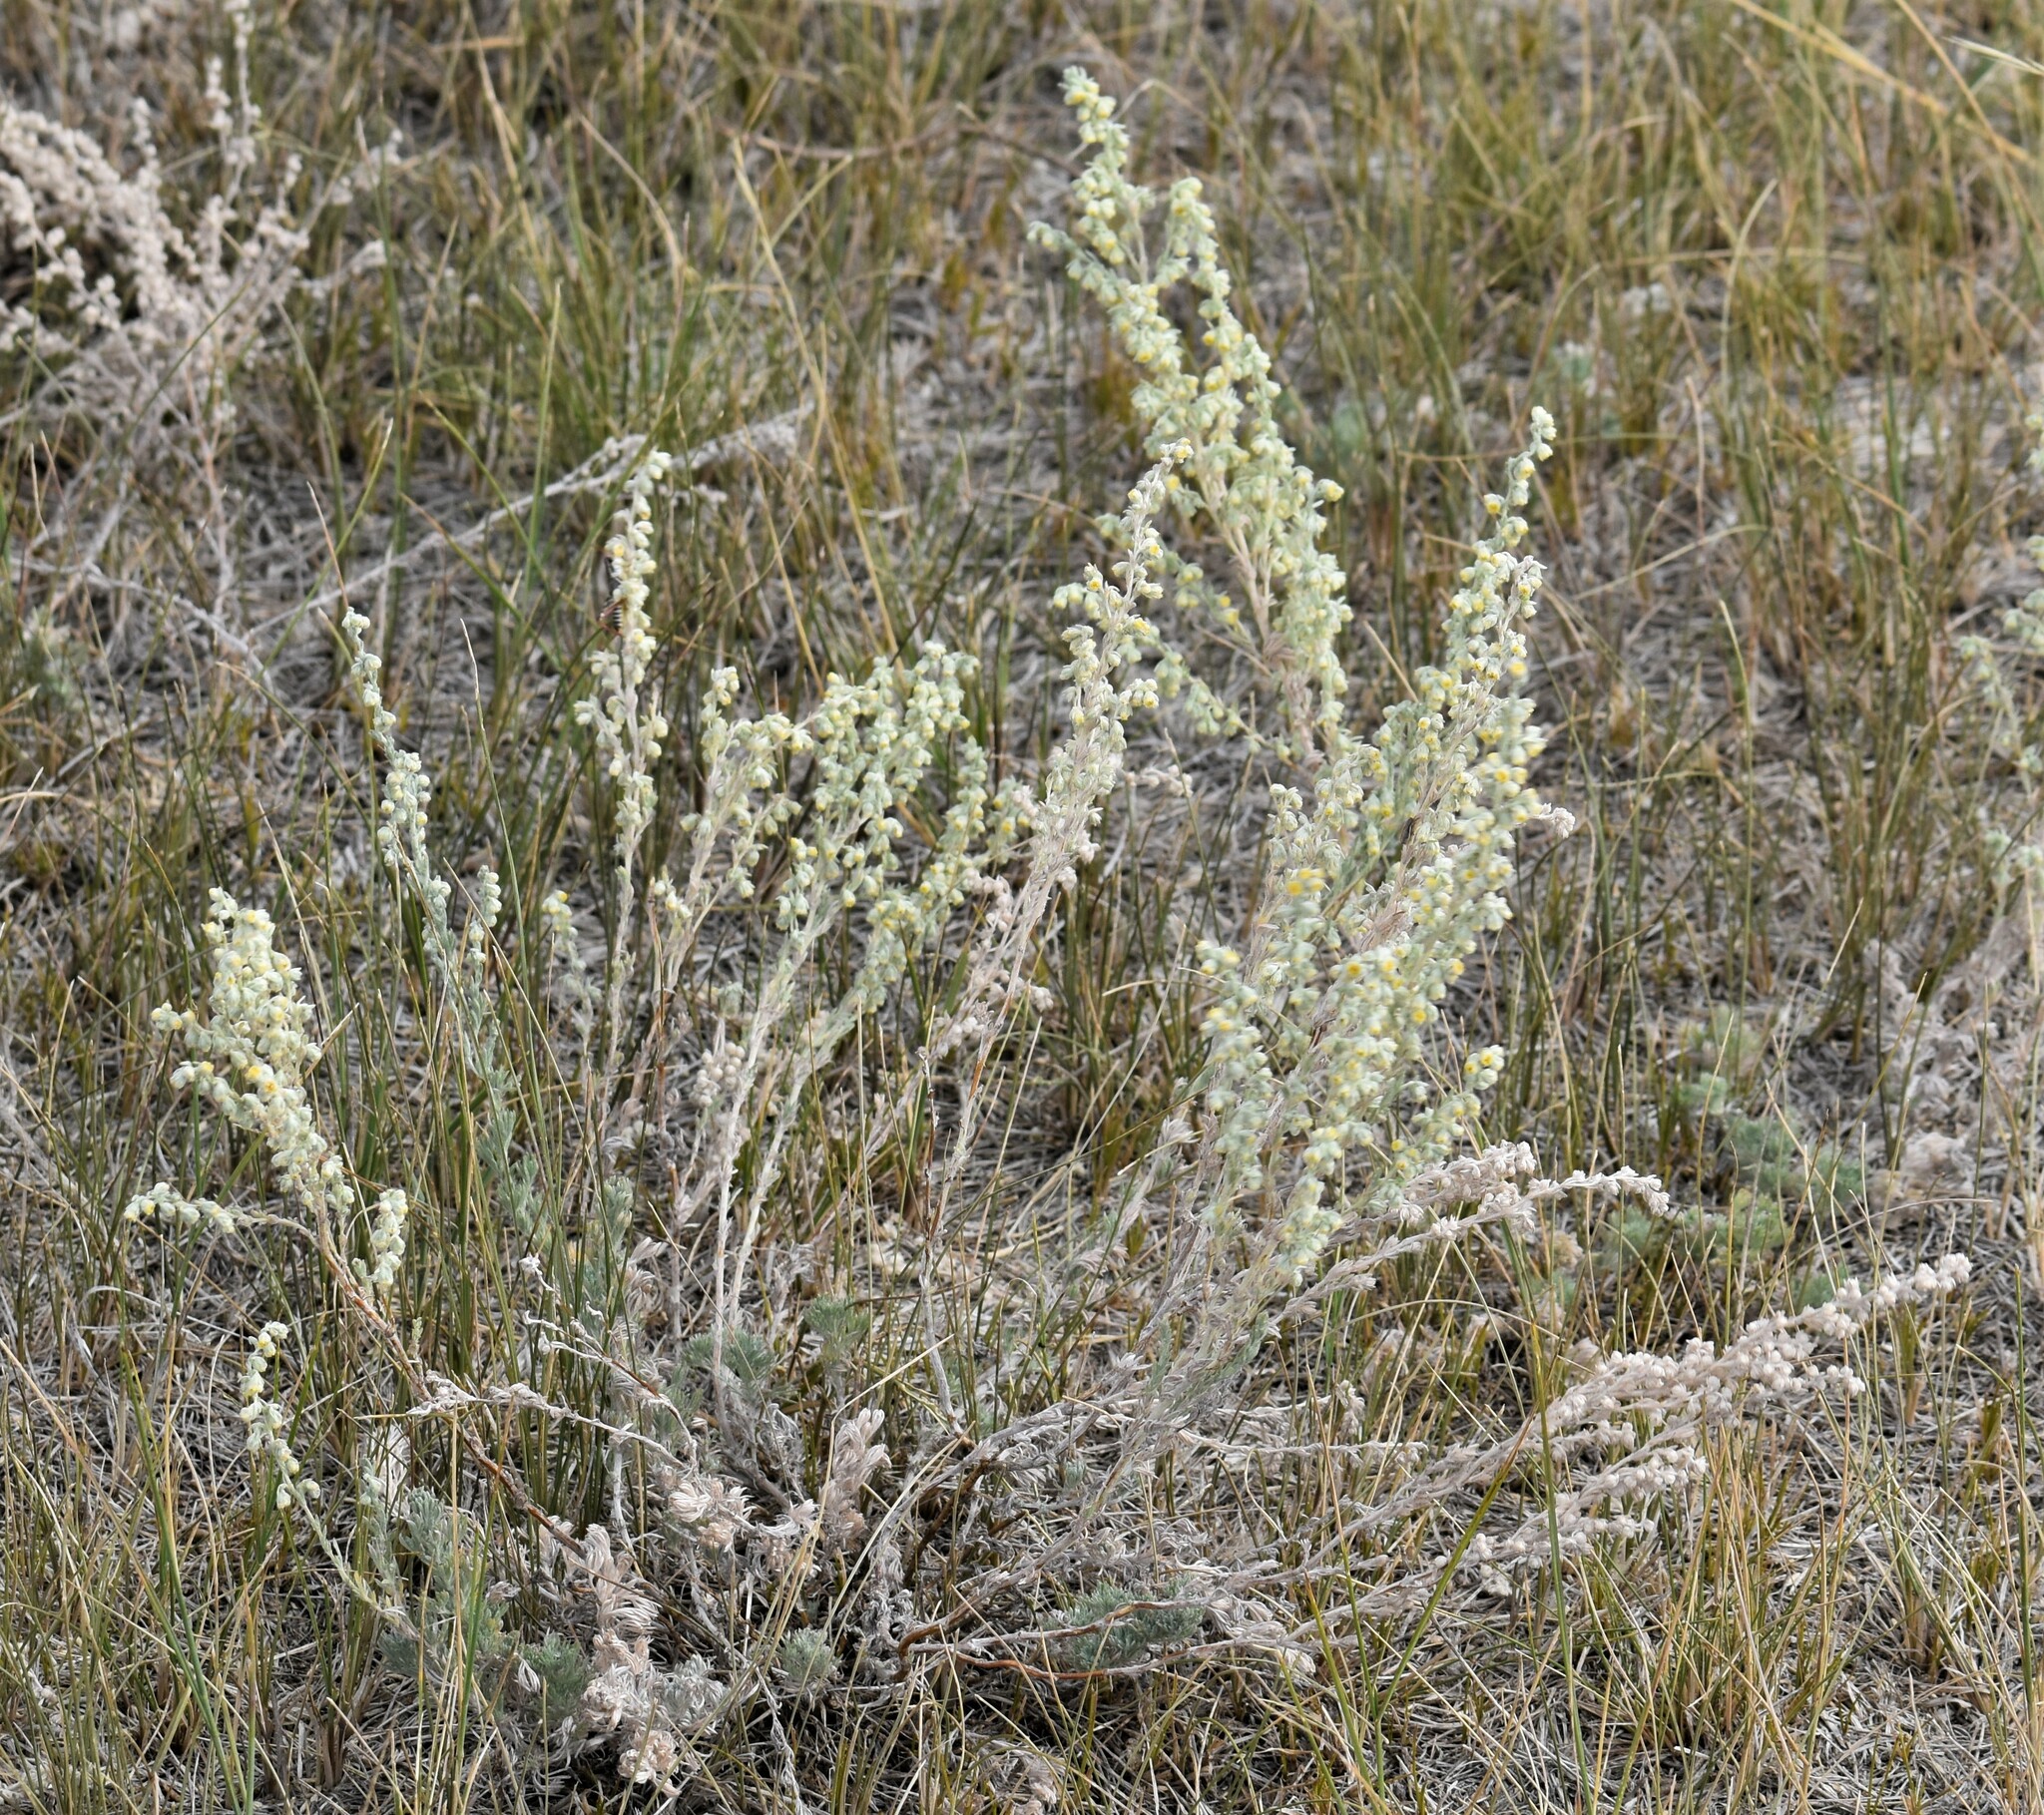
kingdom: Plantae
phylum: Tracheophyta
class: Magnoliopsida
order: Asterales
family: Asteraceae
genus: Artemisia
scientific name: Artemisia frigida
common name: Prairie sagewort
